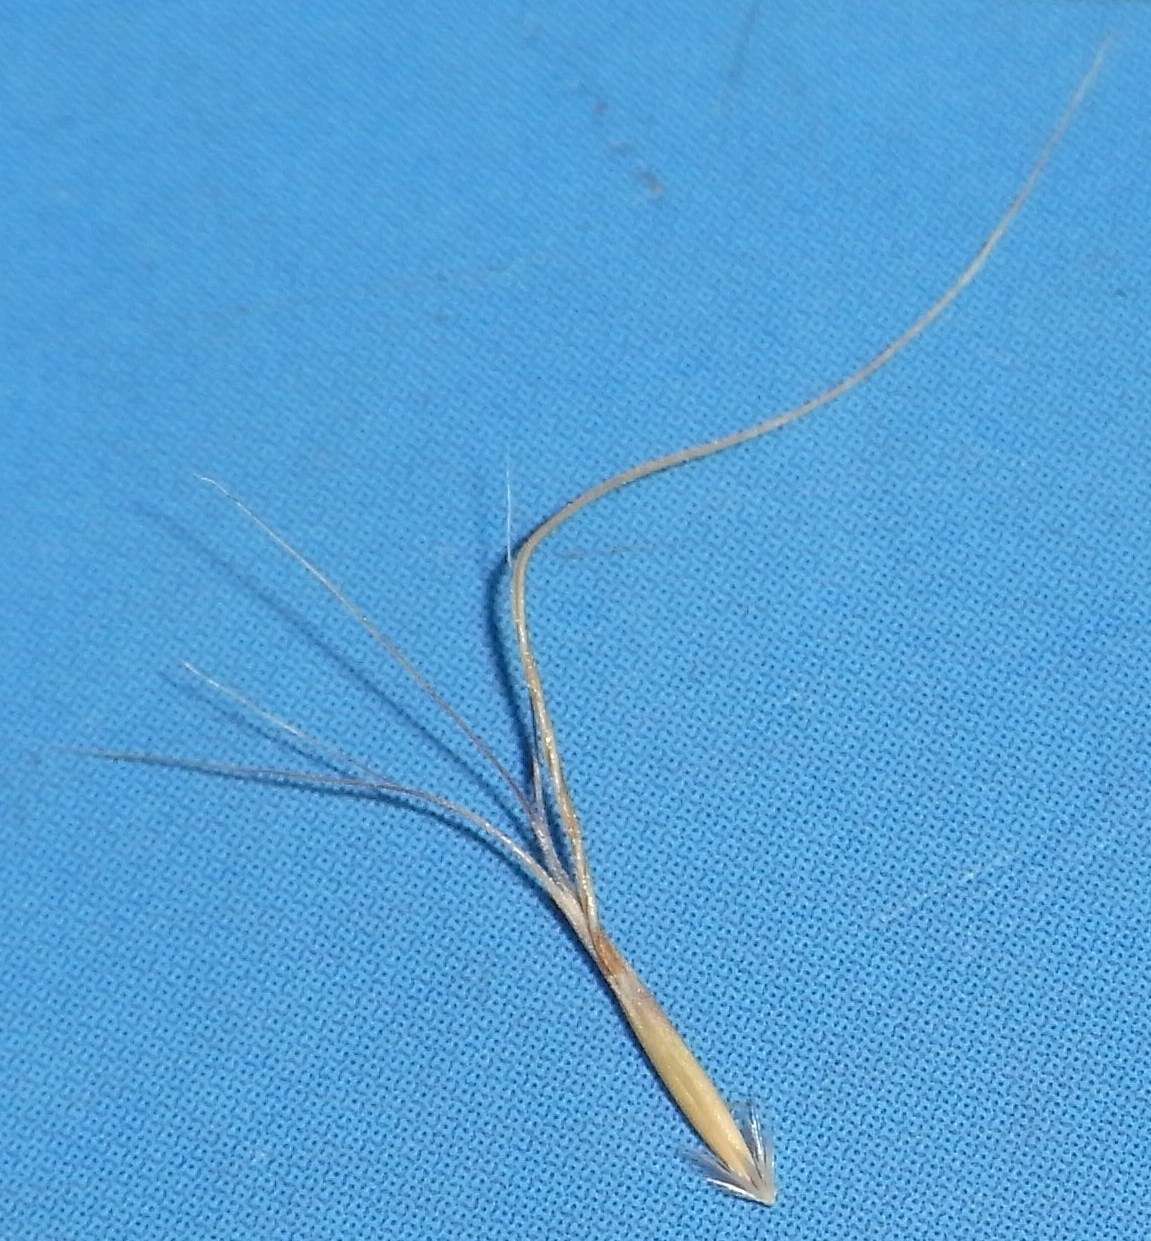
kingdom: Plantae
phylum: Tracheophyta
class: Liliopsida
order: Poales
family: Poaceae
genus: Pentapogon
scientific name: Pentapogon quadrifidus
